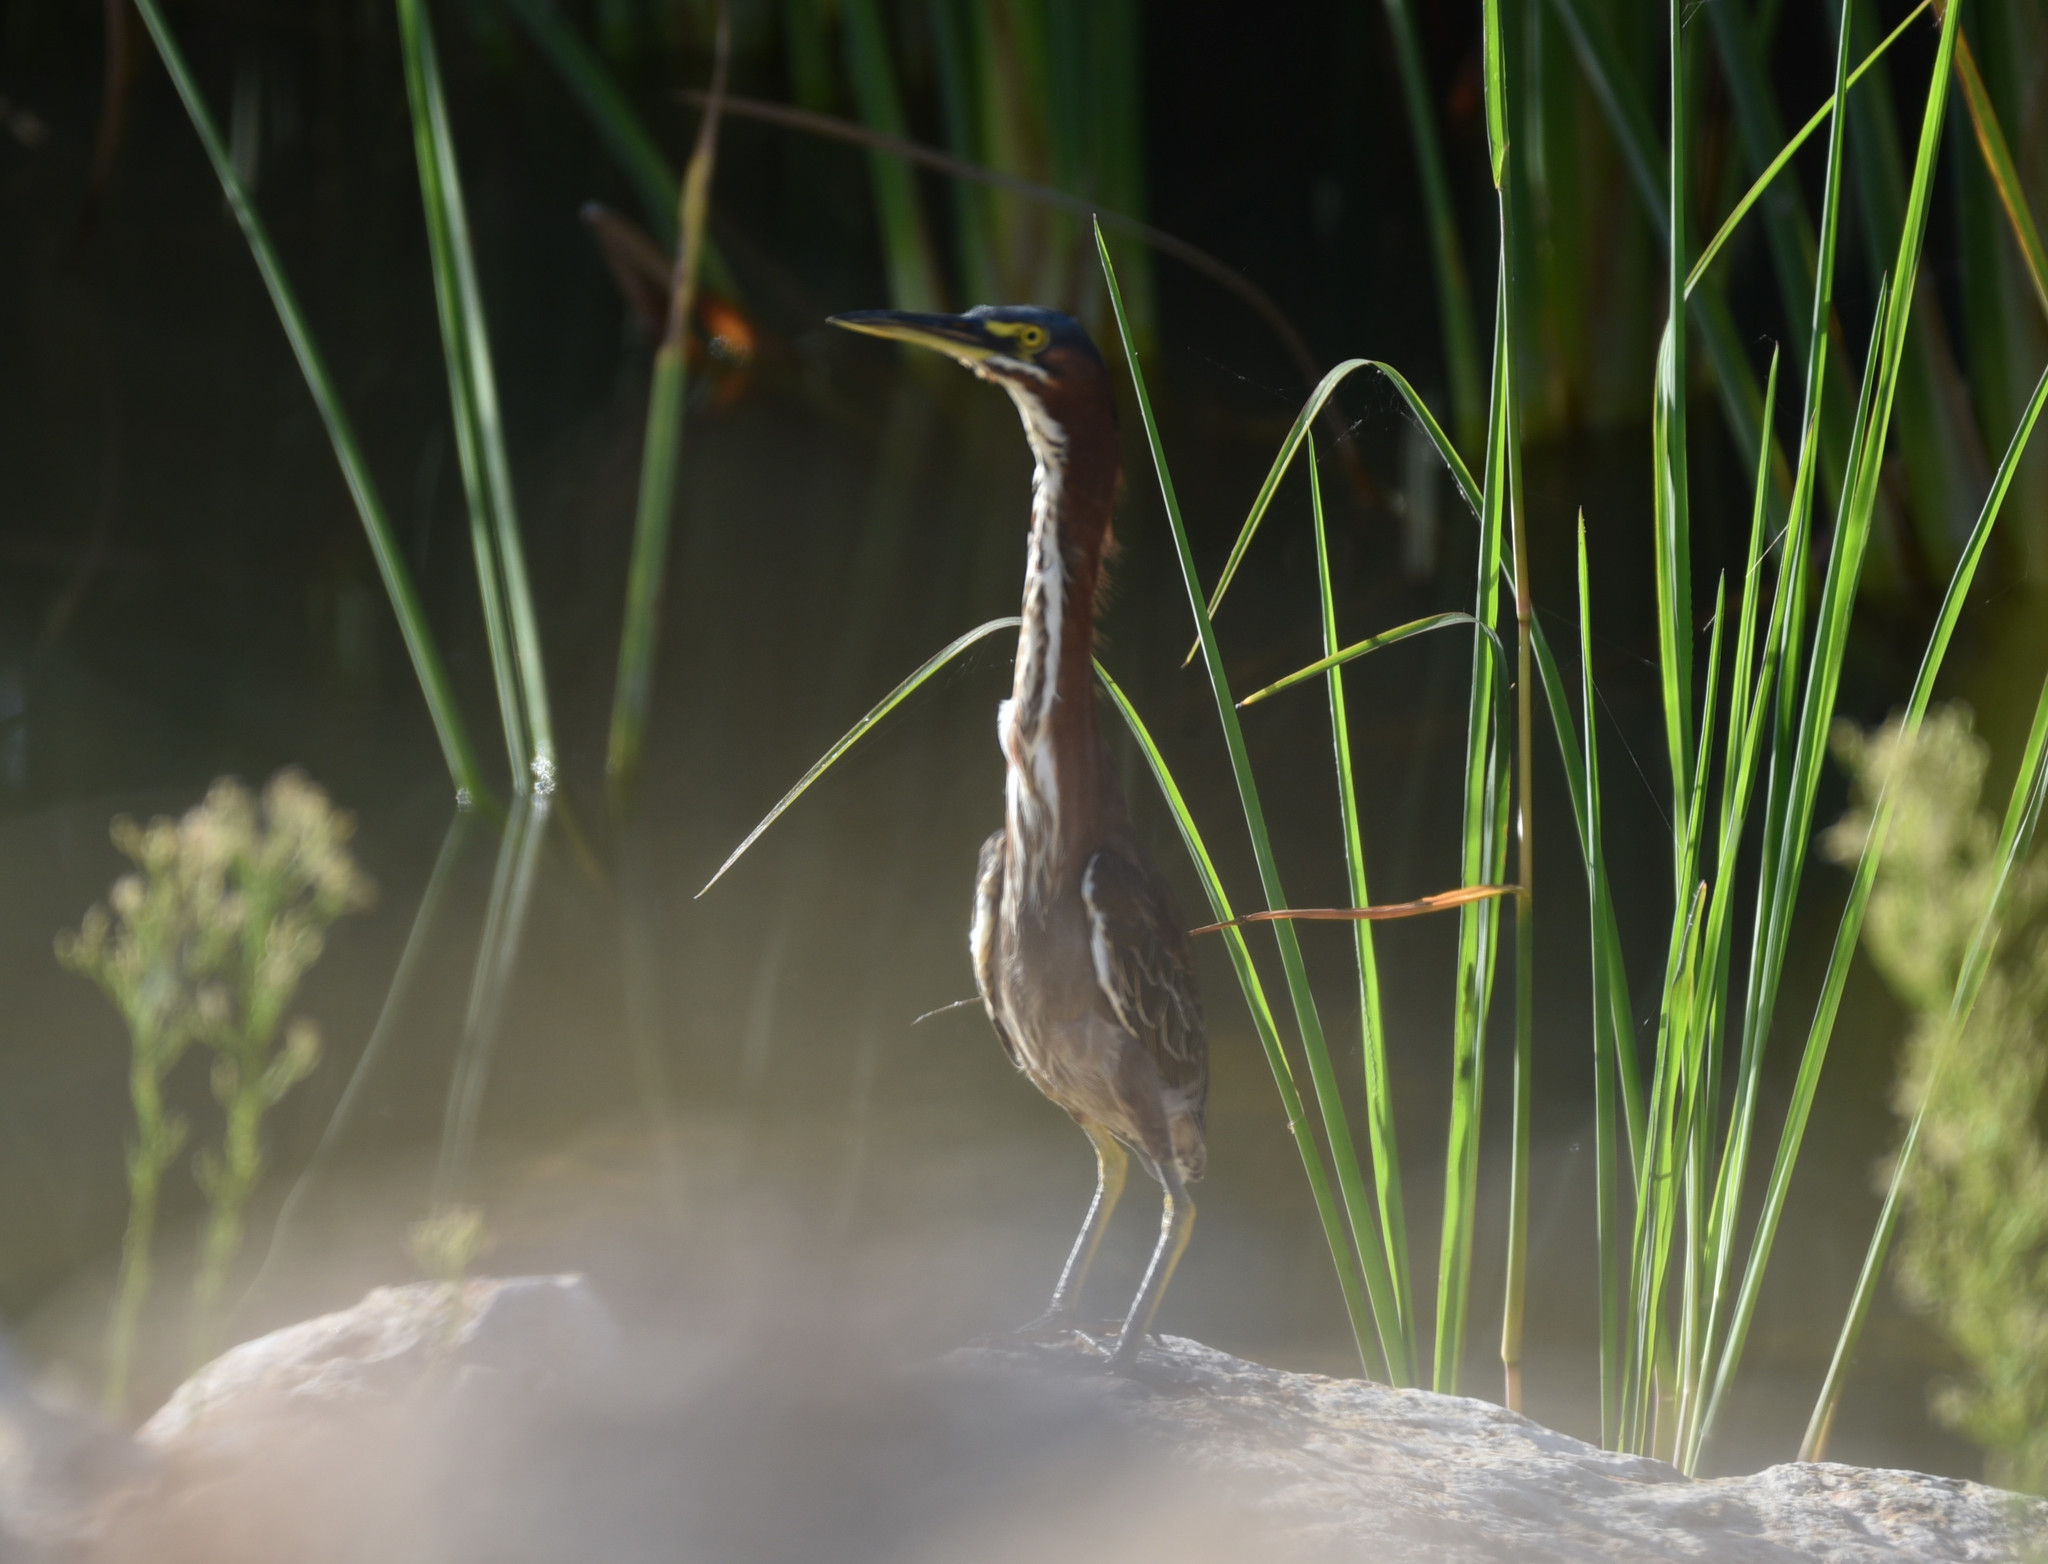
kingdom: Animalia
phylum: Chordata
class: Aves
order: Pelecaniformes
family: Ardeidae
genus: Butorides
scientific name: Butorides virescens
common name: Green heron
